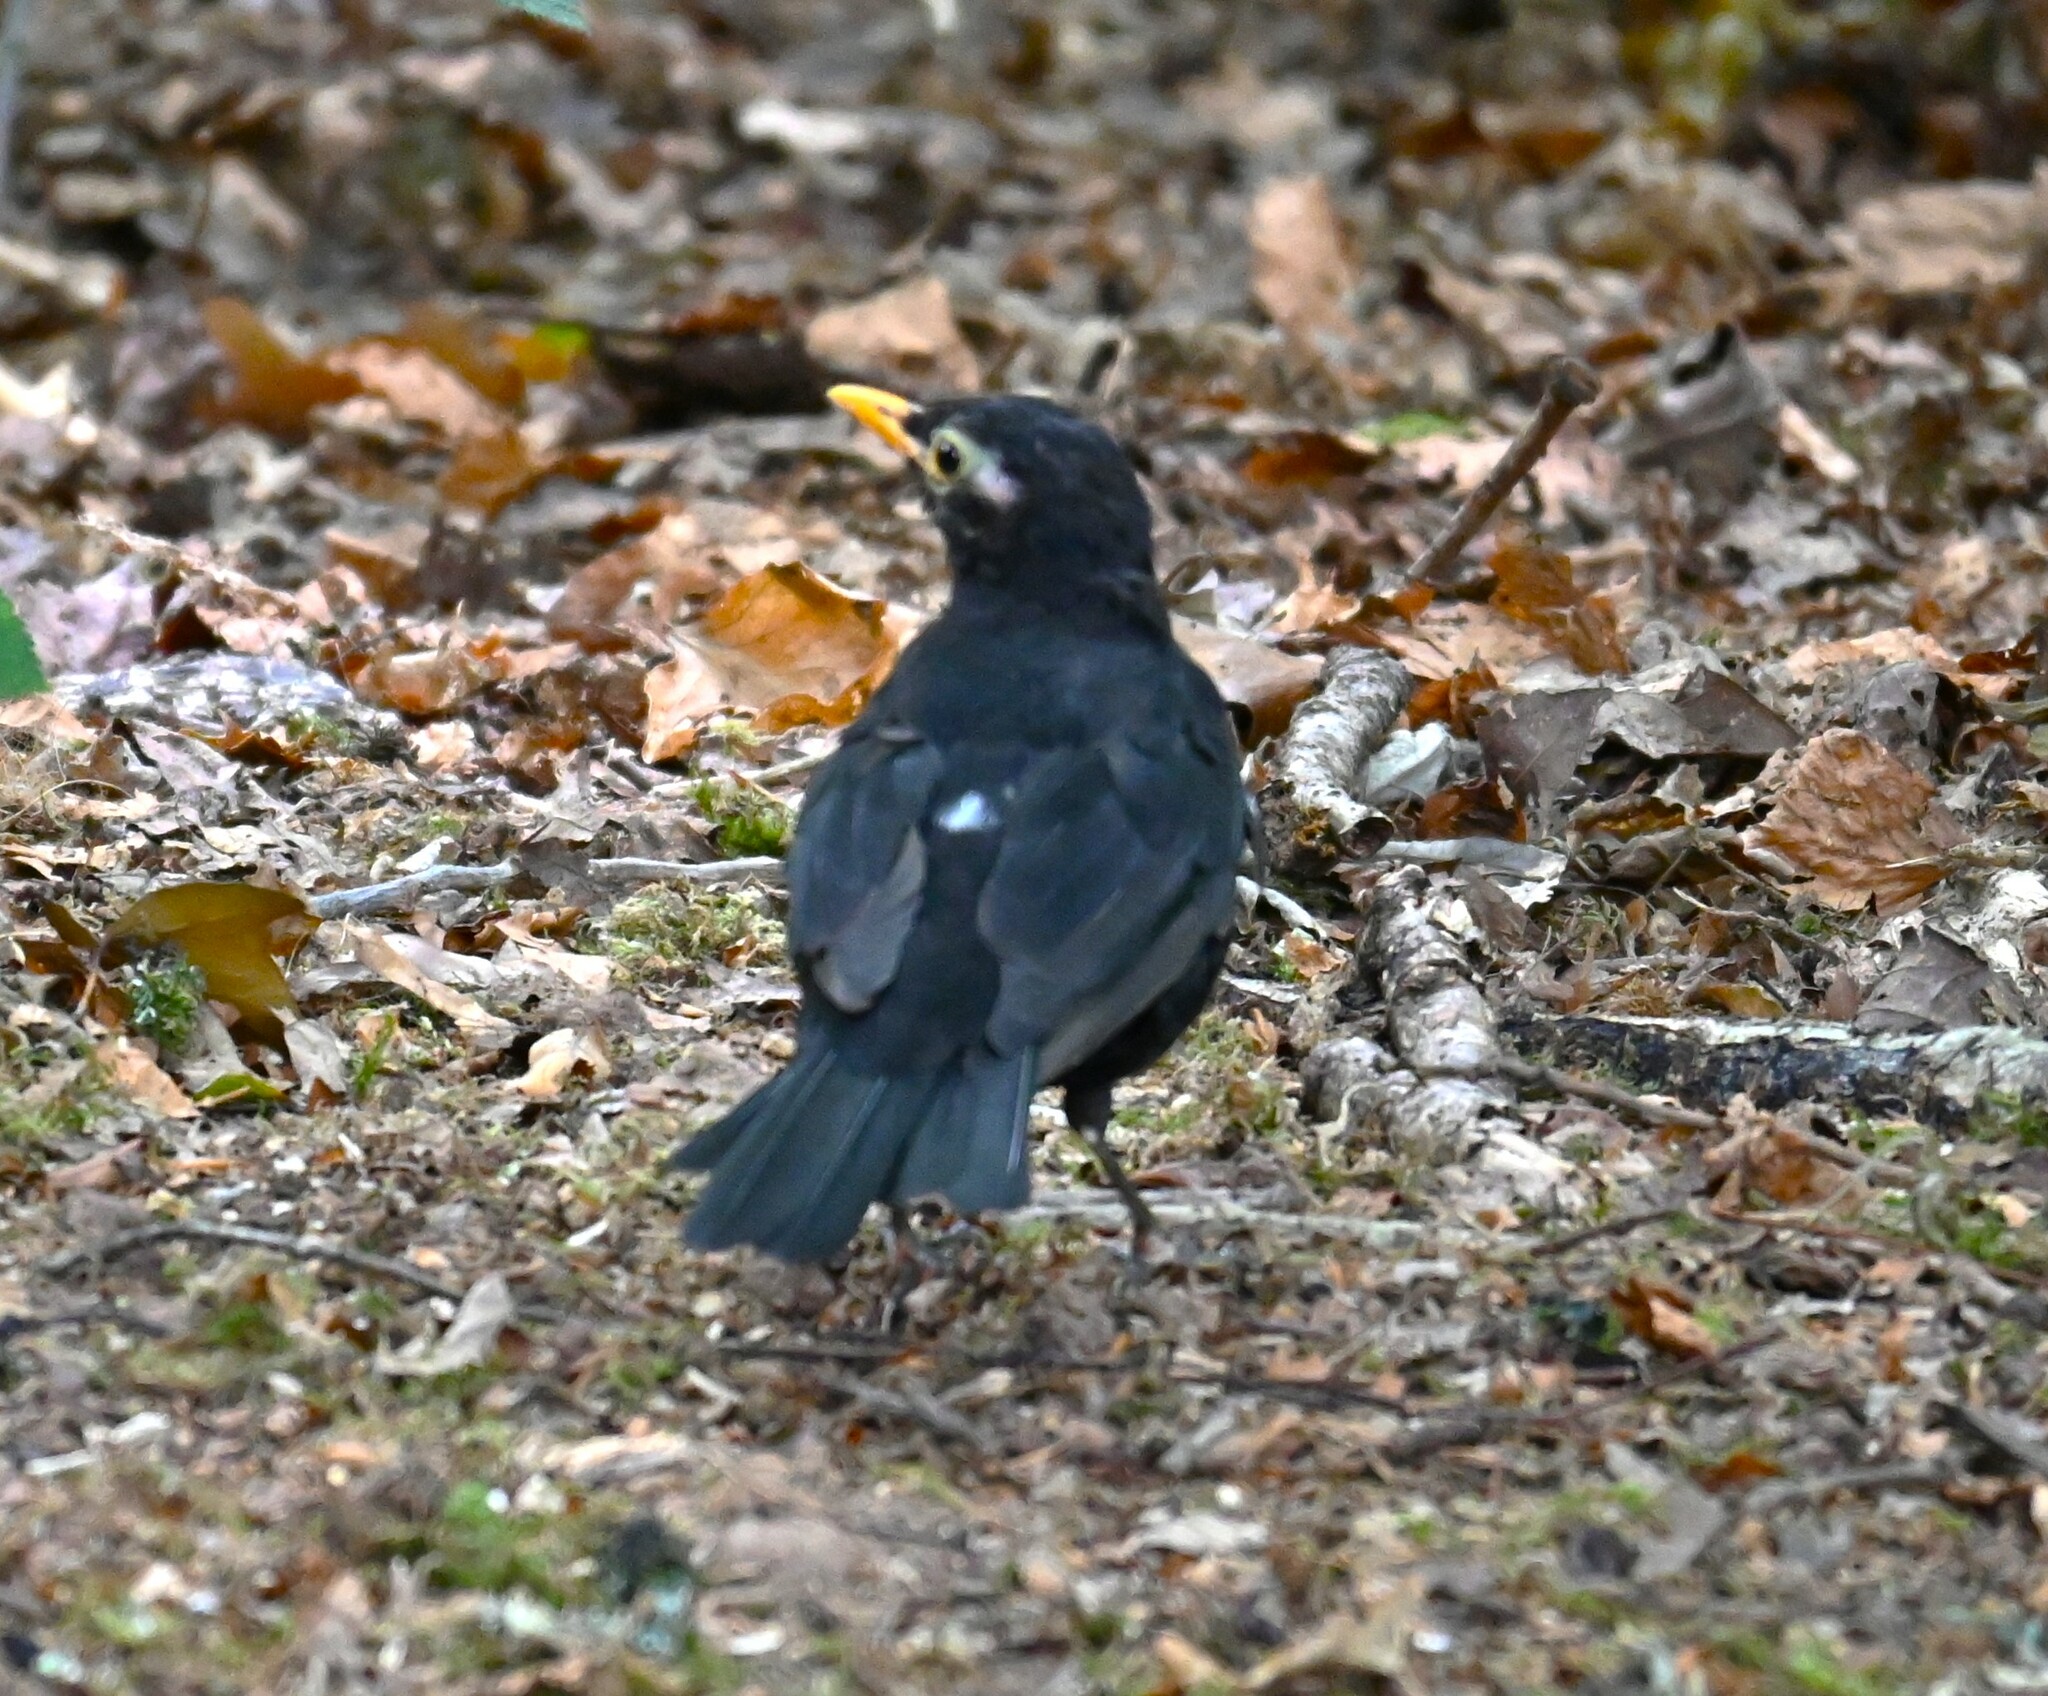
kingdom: Animalia
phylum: Chordata
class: Aves
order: Passeriformes
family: Turdidae
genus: Turdus
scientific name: Turdus merula
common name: Common blackbird
